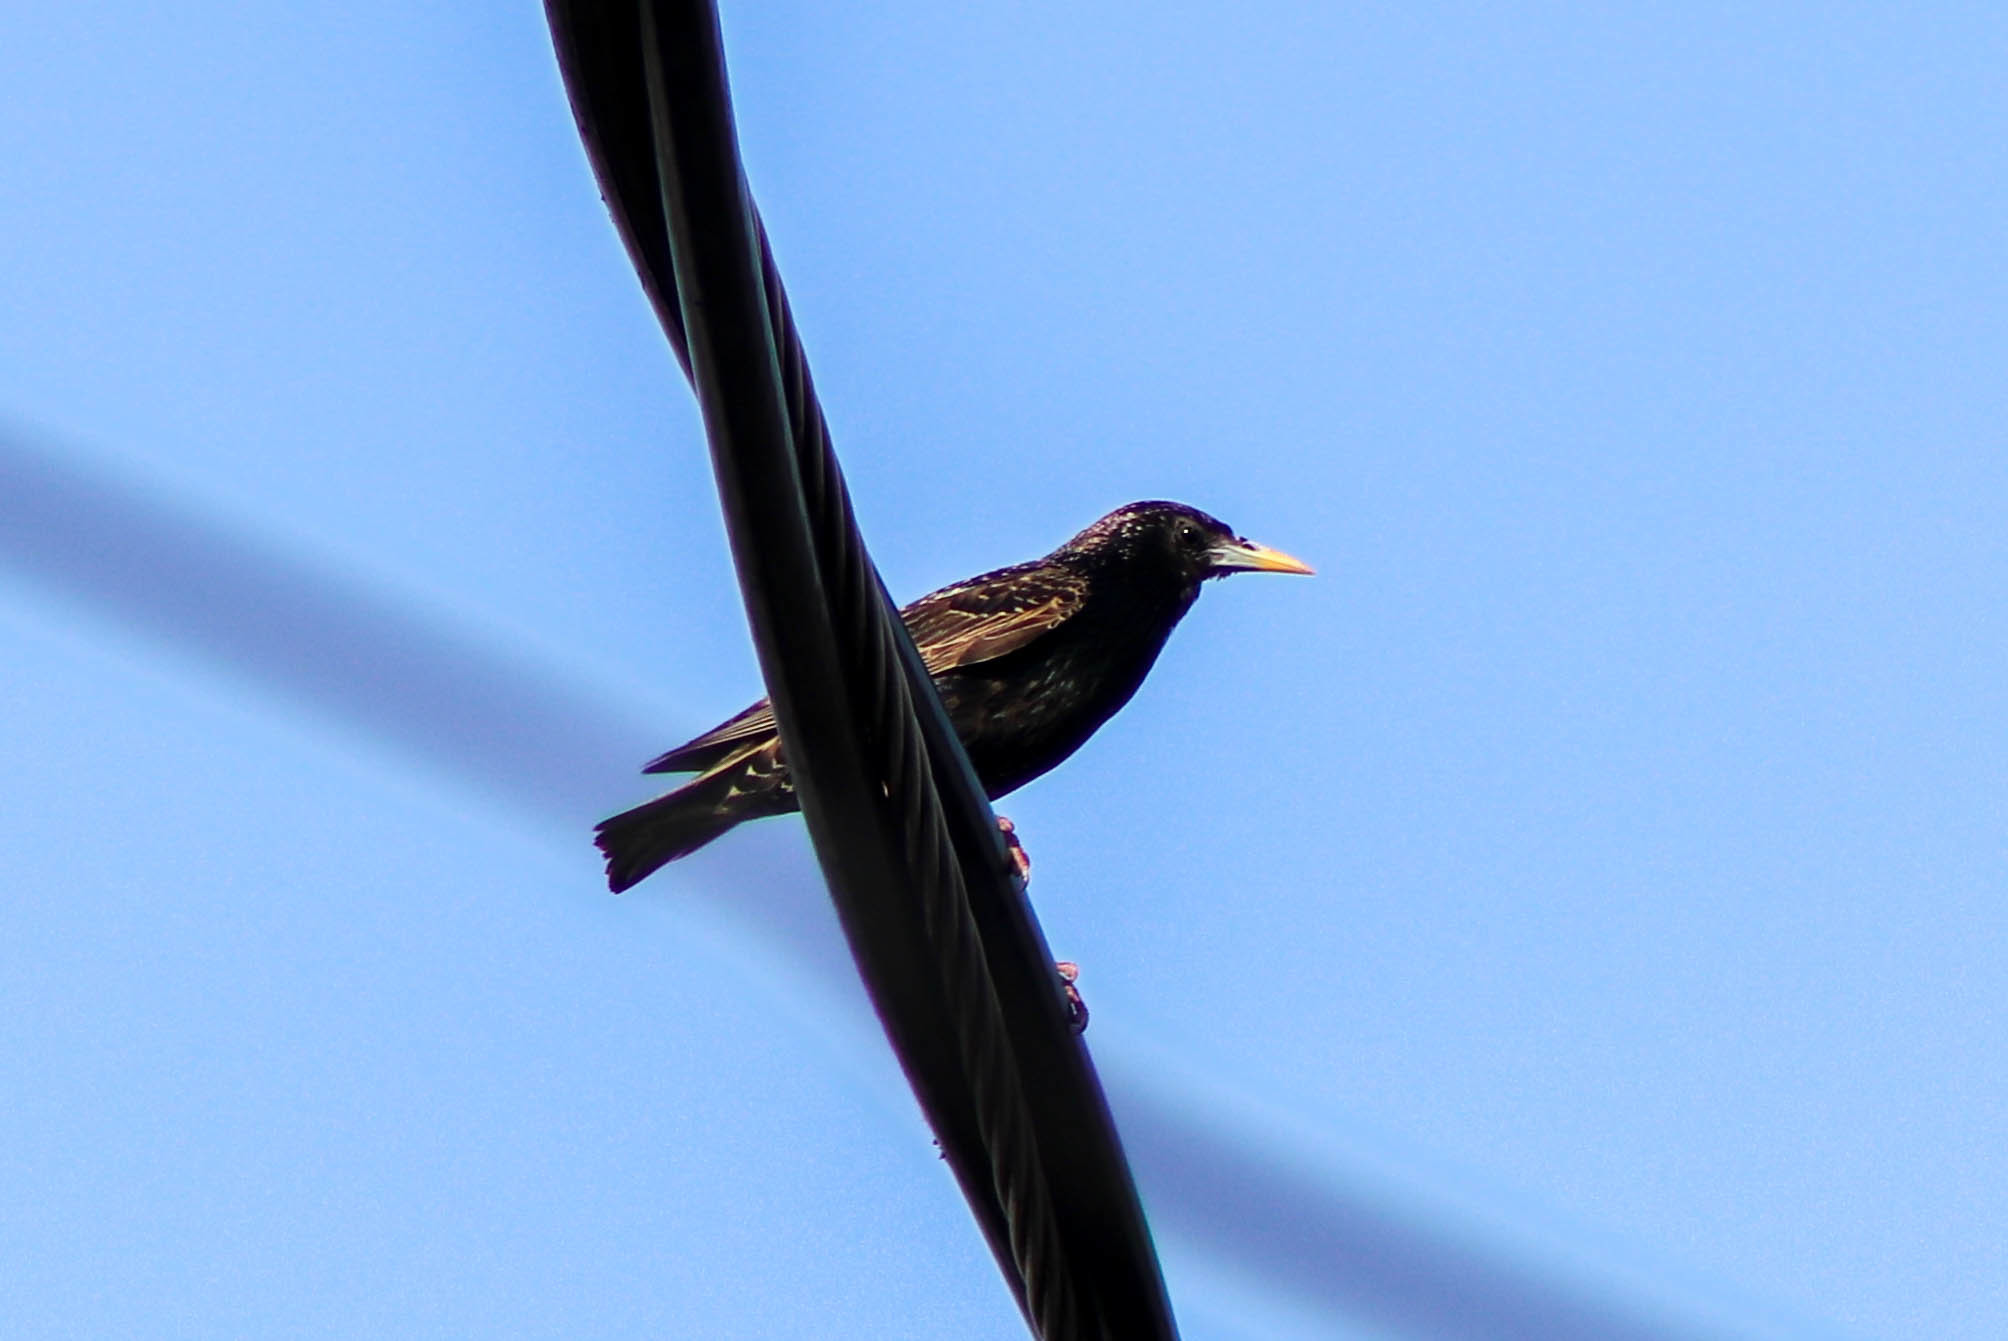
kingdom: Animalia
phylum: Chordata
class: Aves
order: Passeriformes
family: Sturnidae
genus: Sturnus
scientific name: Sturnus vulgaris
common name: Common starling
